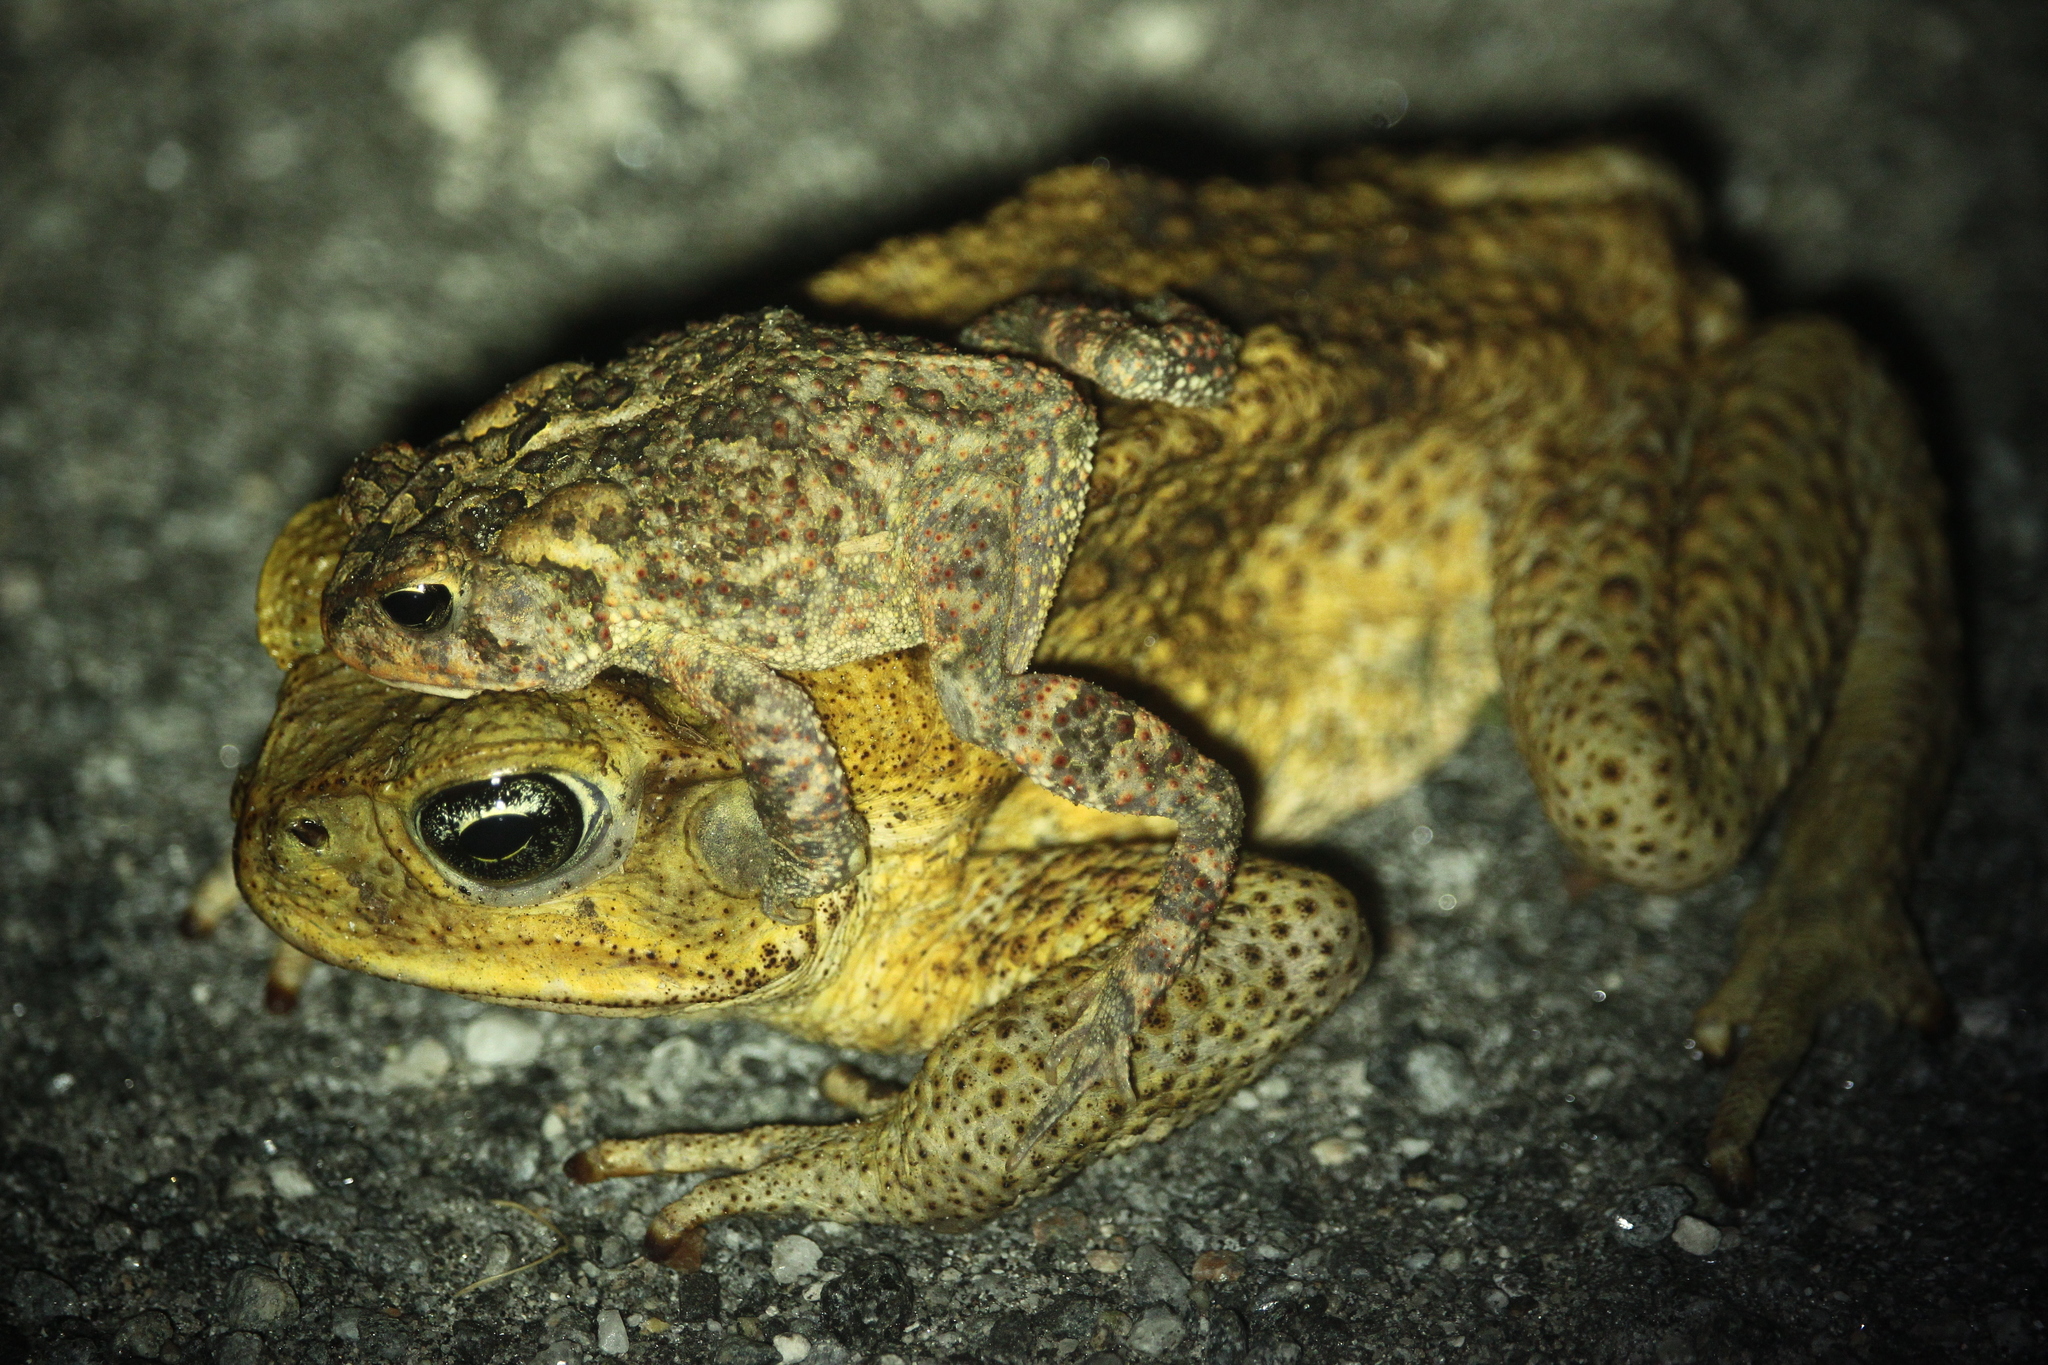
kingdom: Animalia
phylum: Chordata
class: Amphibia
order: Anura
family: Bufonidae
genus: Anaxyrus
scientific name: Anaxyrus terrestris
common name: Southern toad
